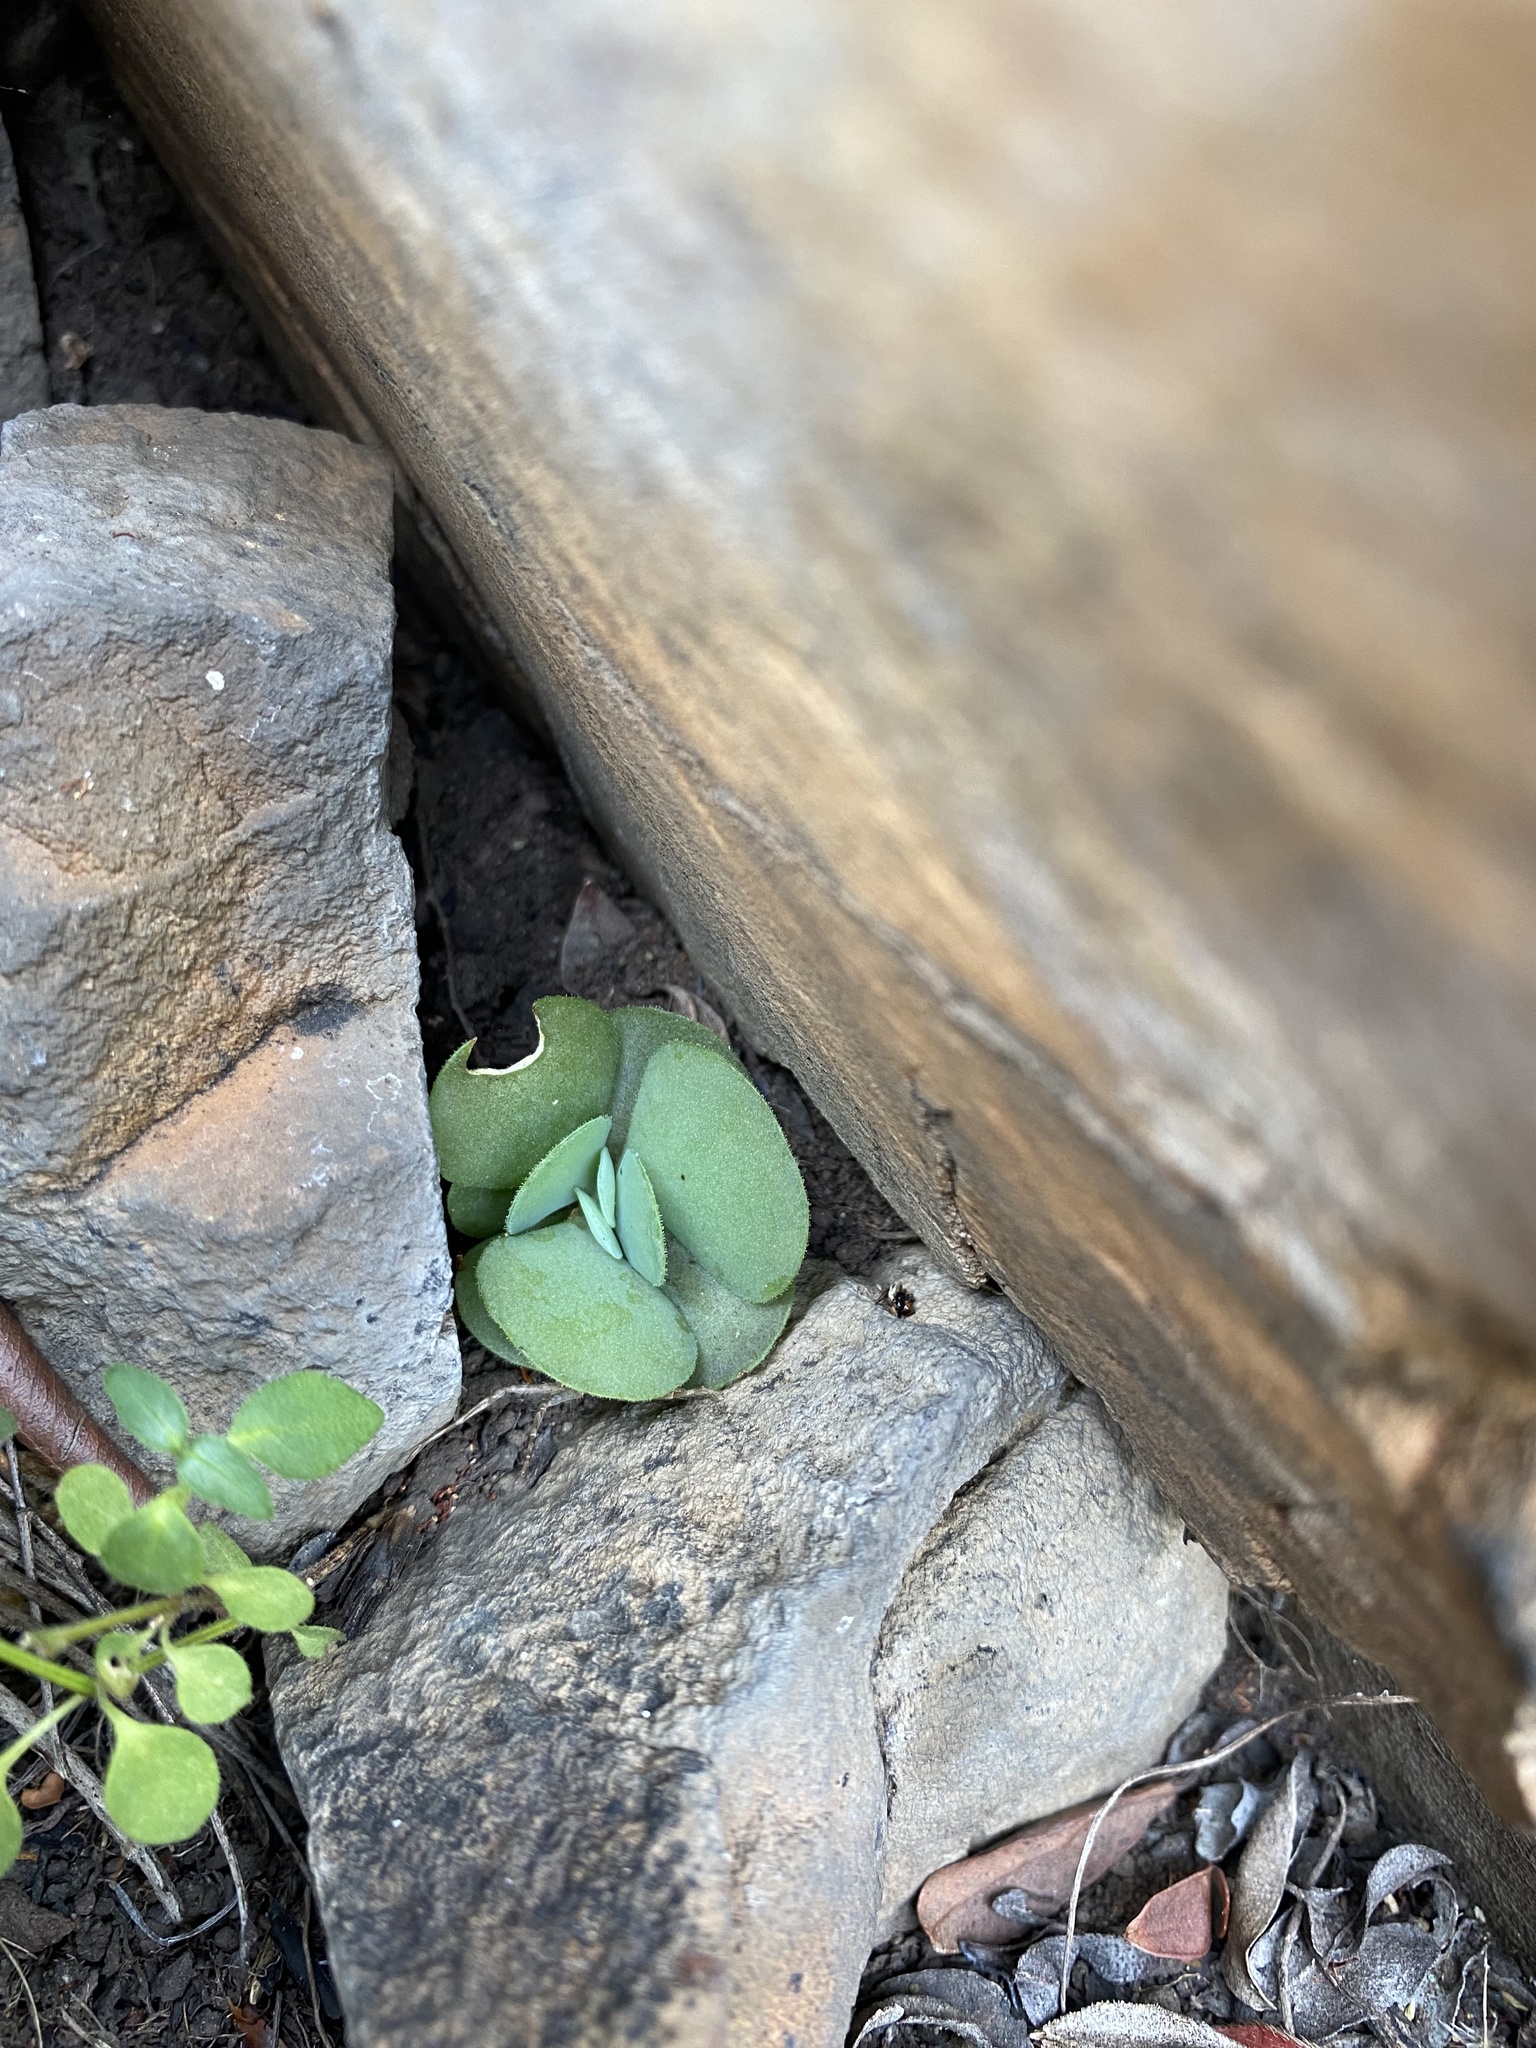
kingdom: Plantae
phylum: Tracheophyta
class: Magnoliopsida
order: Saxifragales
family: Crassulaceae
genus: Kalanchoe
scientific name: Kalanchoe thyrsiflora
